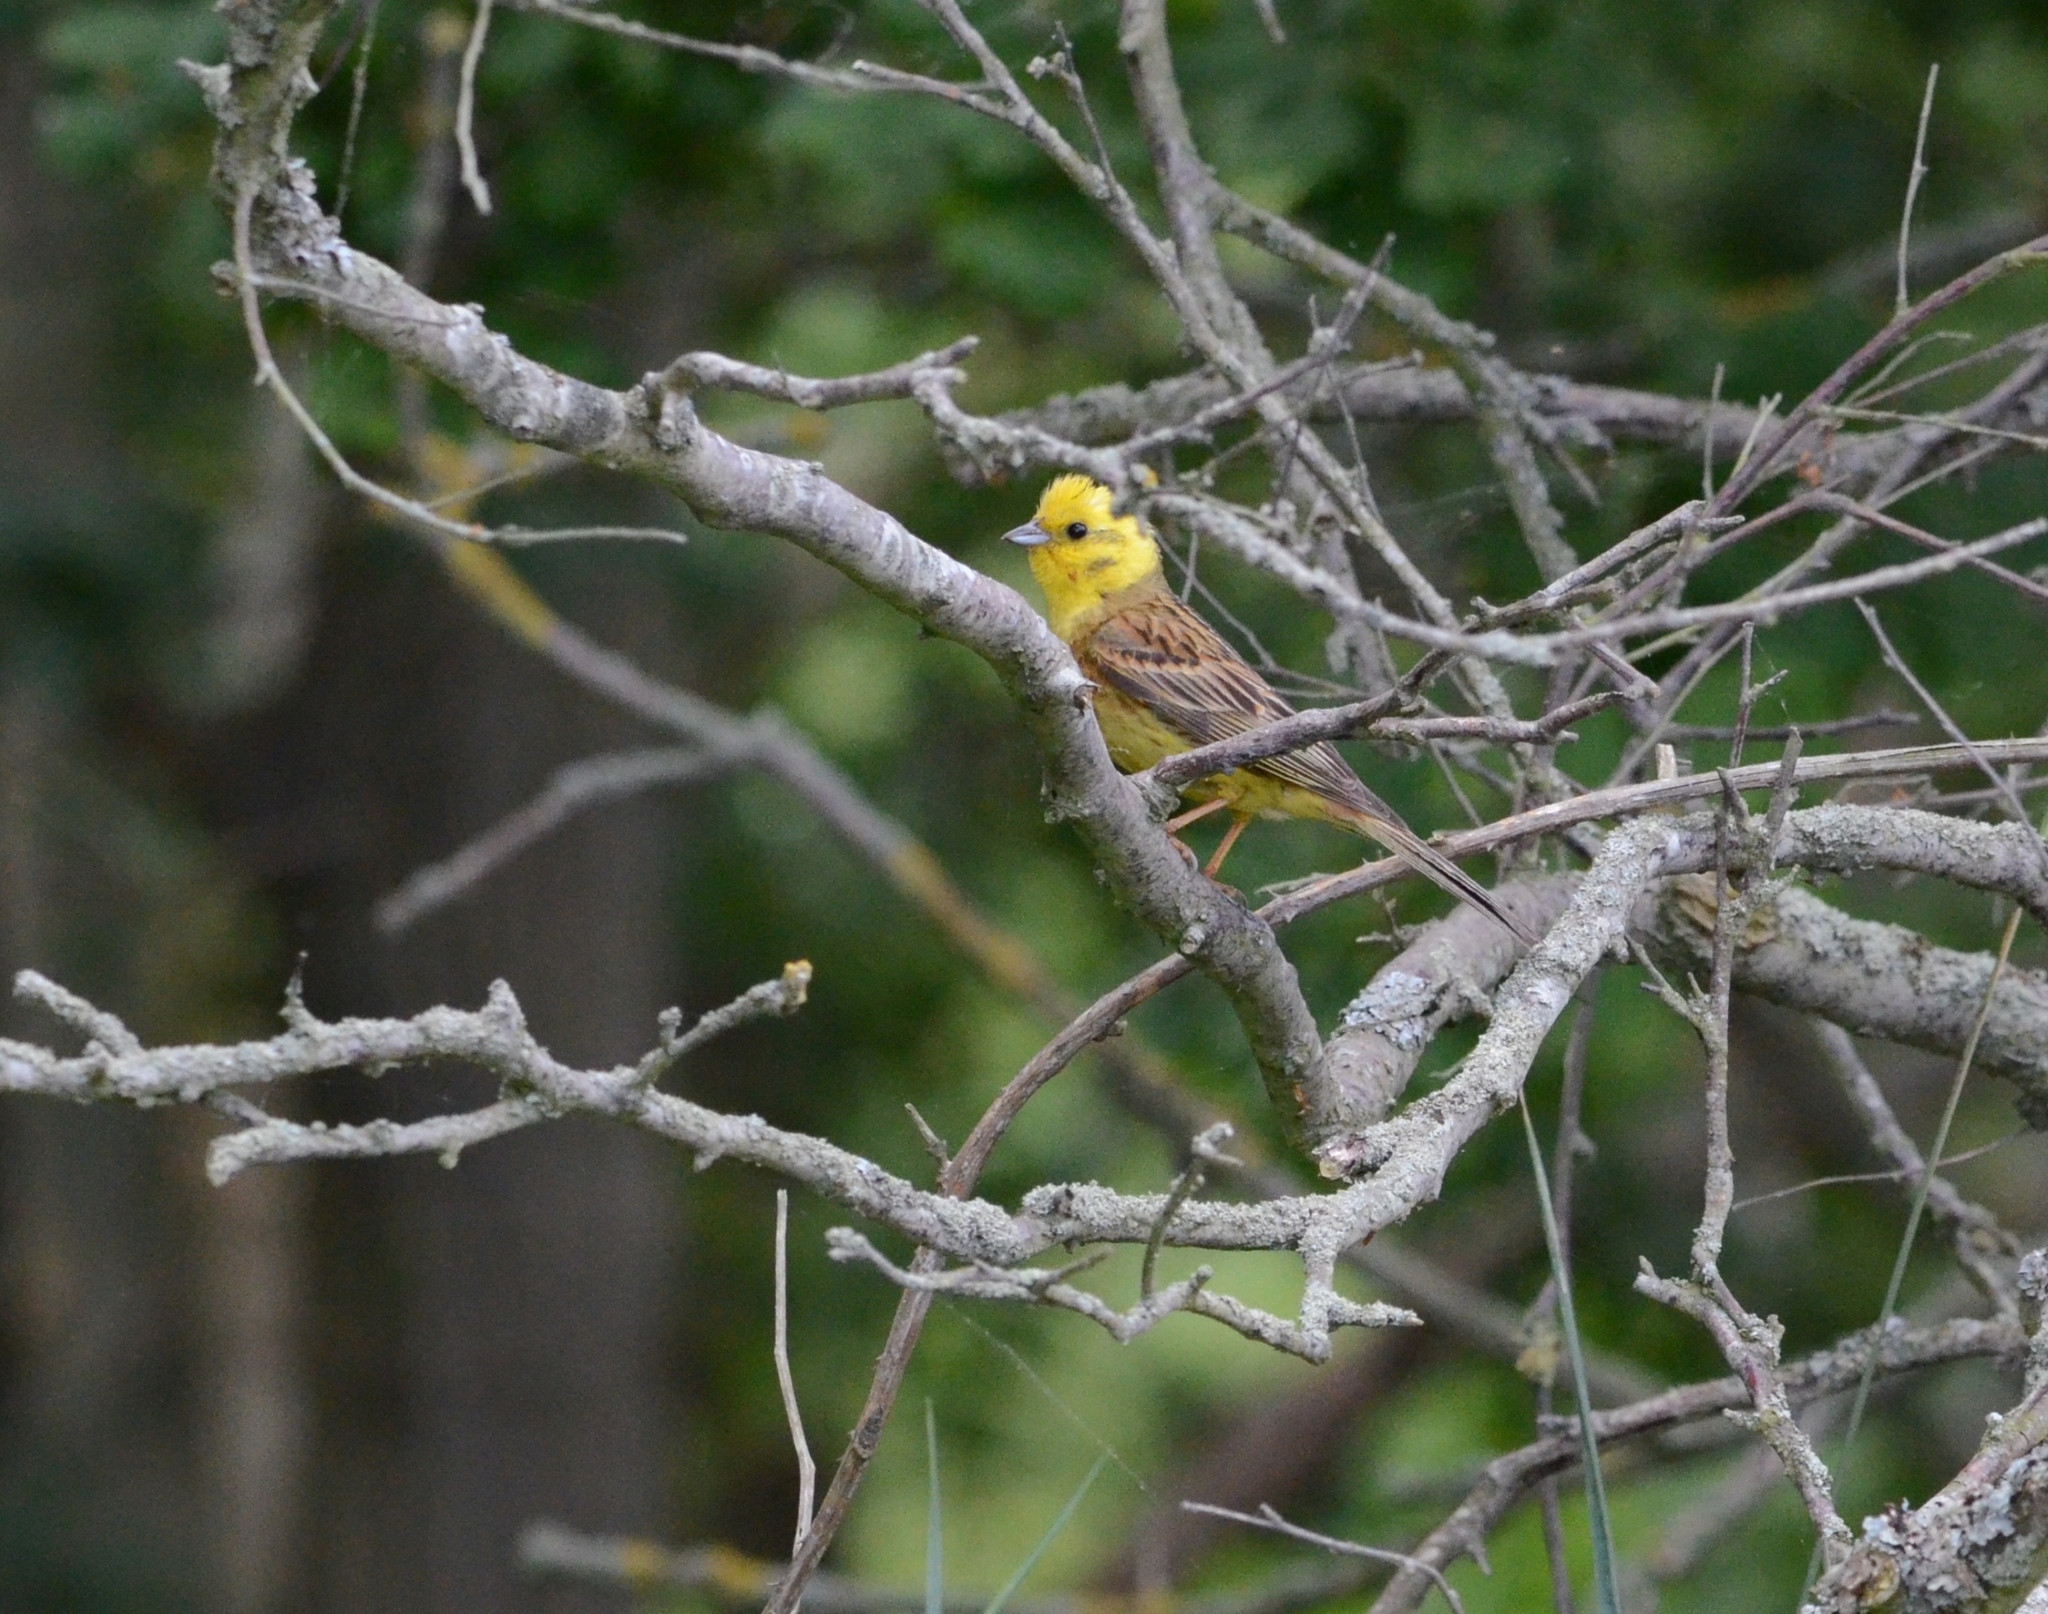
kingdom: Animalia
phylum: Chordata
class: Aves
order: Passeriformes
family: Emberizidae
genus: Emberiza
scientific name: Emberiza citrinella
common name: Yellowhammer
